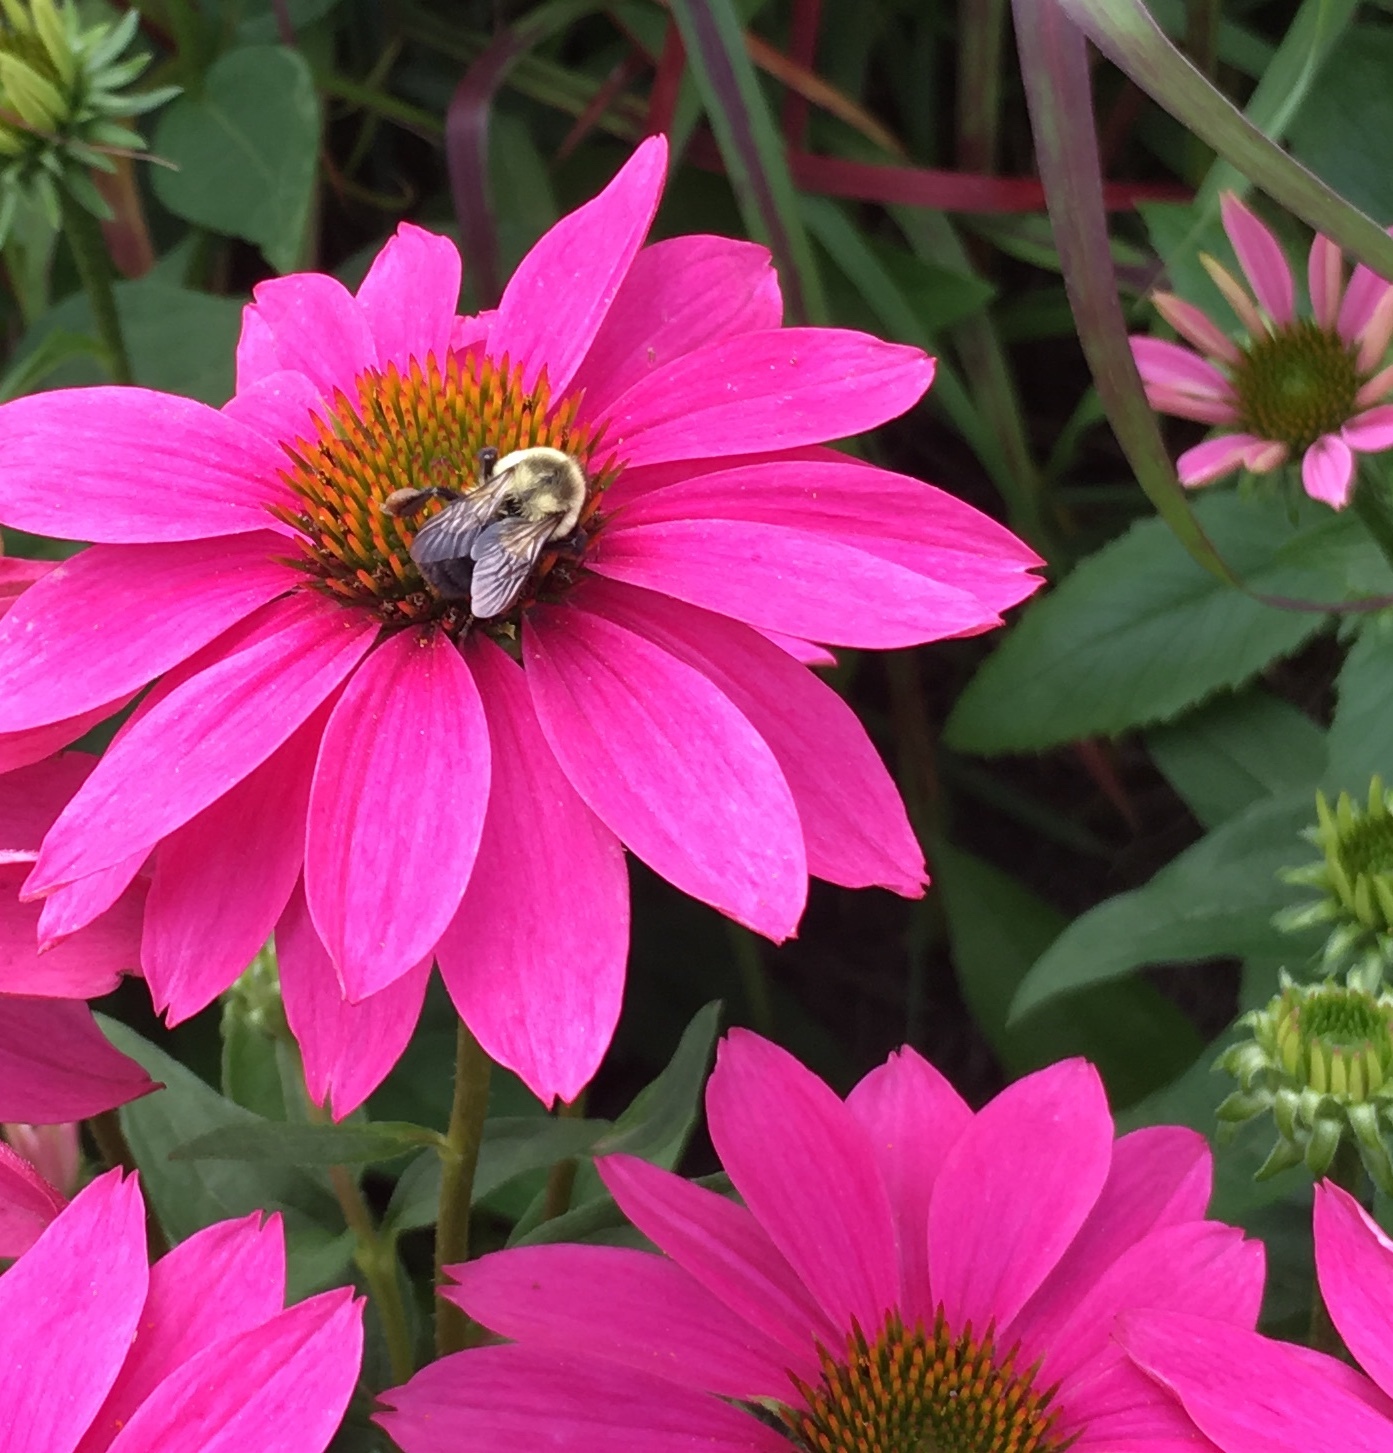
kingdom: Animalia
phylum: Arthropoda
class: Insecta
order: Hymenoptera
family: Apidae
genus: Bombus
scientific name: Bombus impatiens
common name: Common eastern bumble bee
